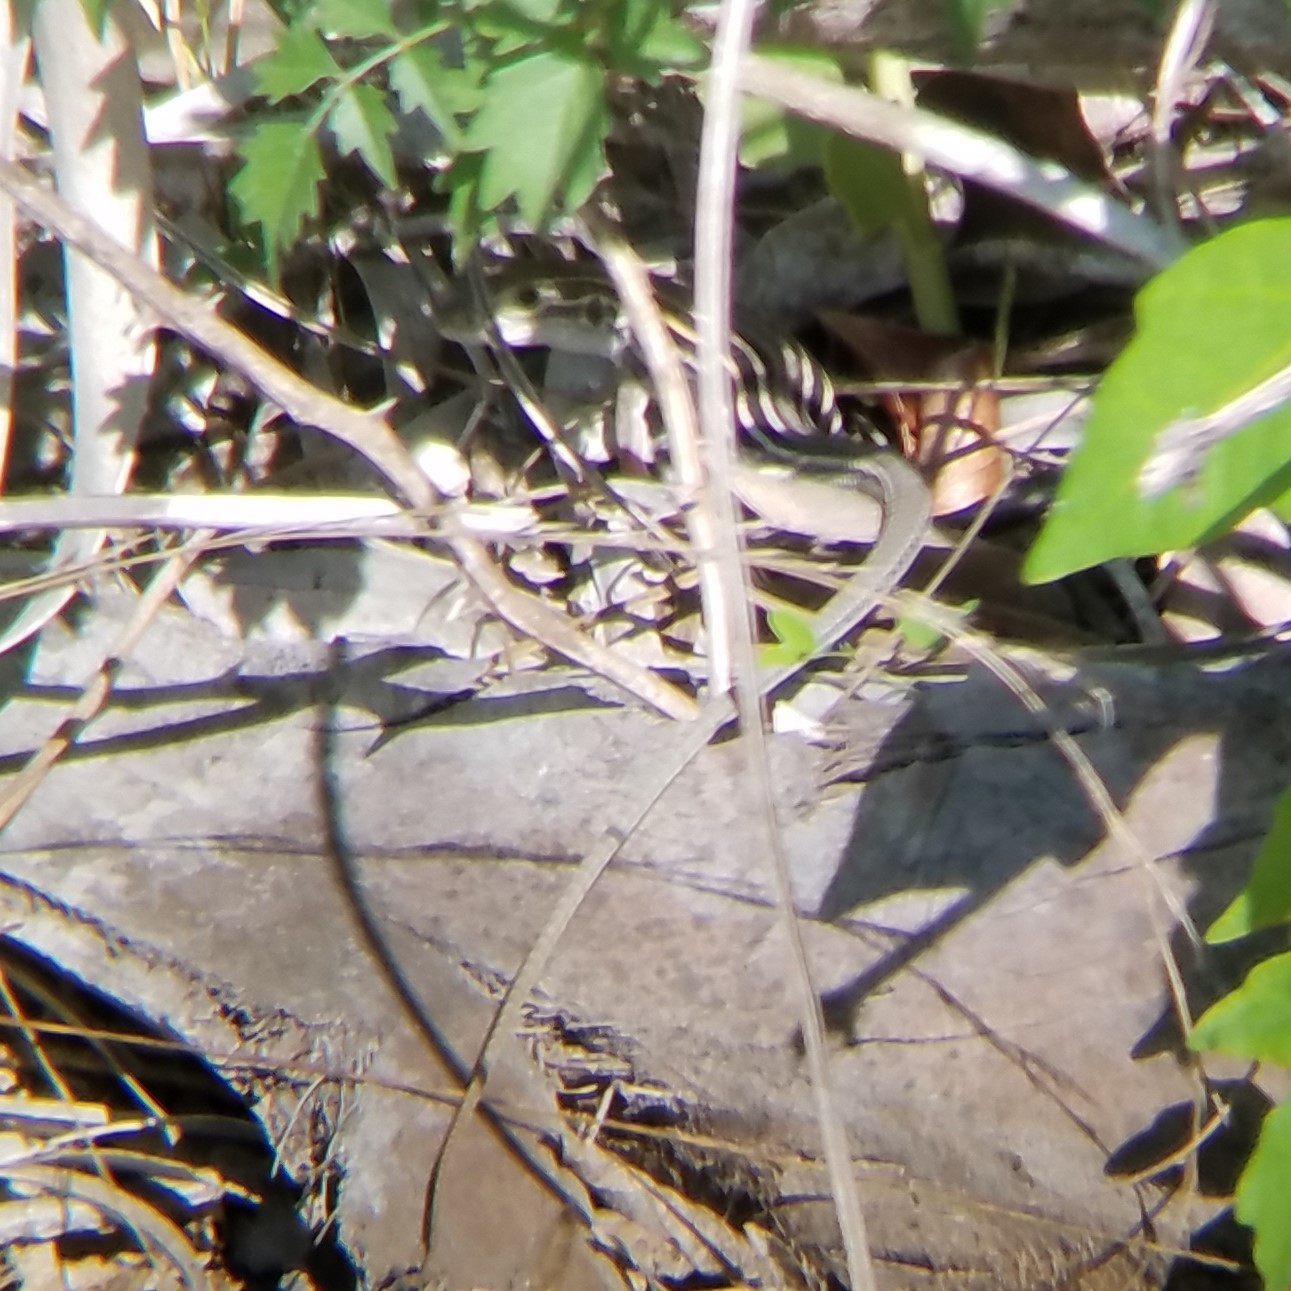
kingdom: Animalia
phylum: Chordata
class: Squamata
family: Teiidae
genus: Aspidoscelis
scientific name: Aspidoscelis sexlineatus
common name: Six-lined racerunner
